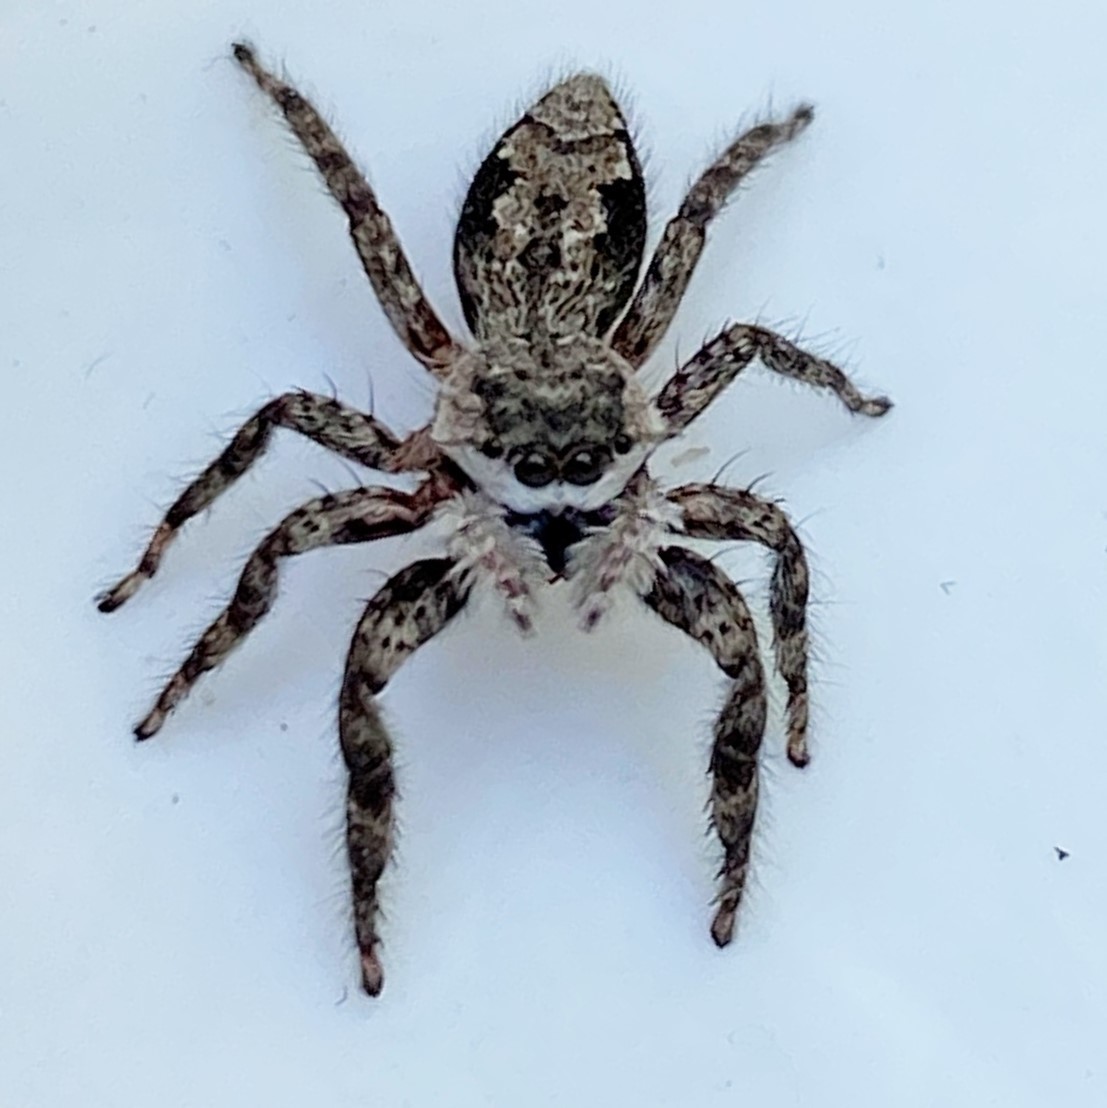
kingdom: Animalia
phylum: Arthropoda
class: Arachnida
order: Araneae
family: Salticidae
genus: Platycryptus
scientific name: Platycryptus undatus
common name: Tan jumping spider
